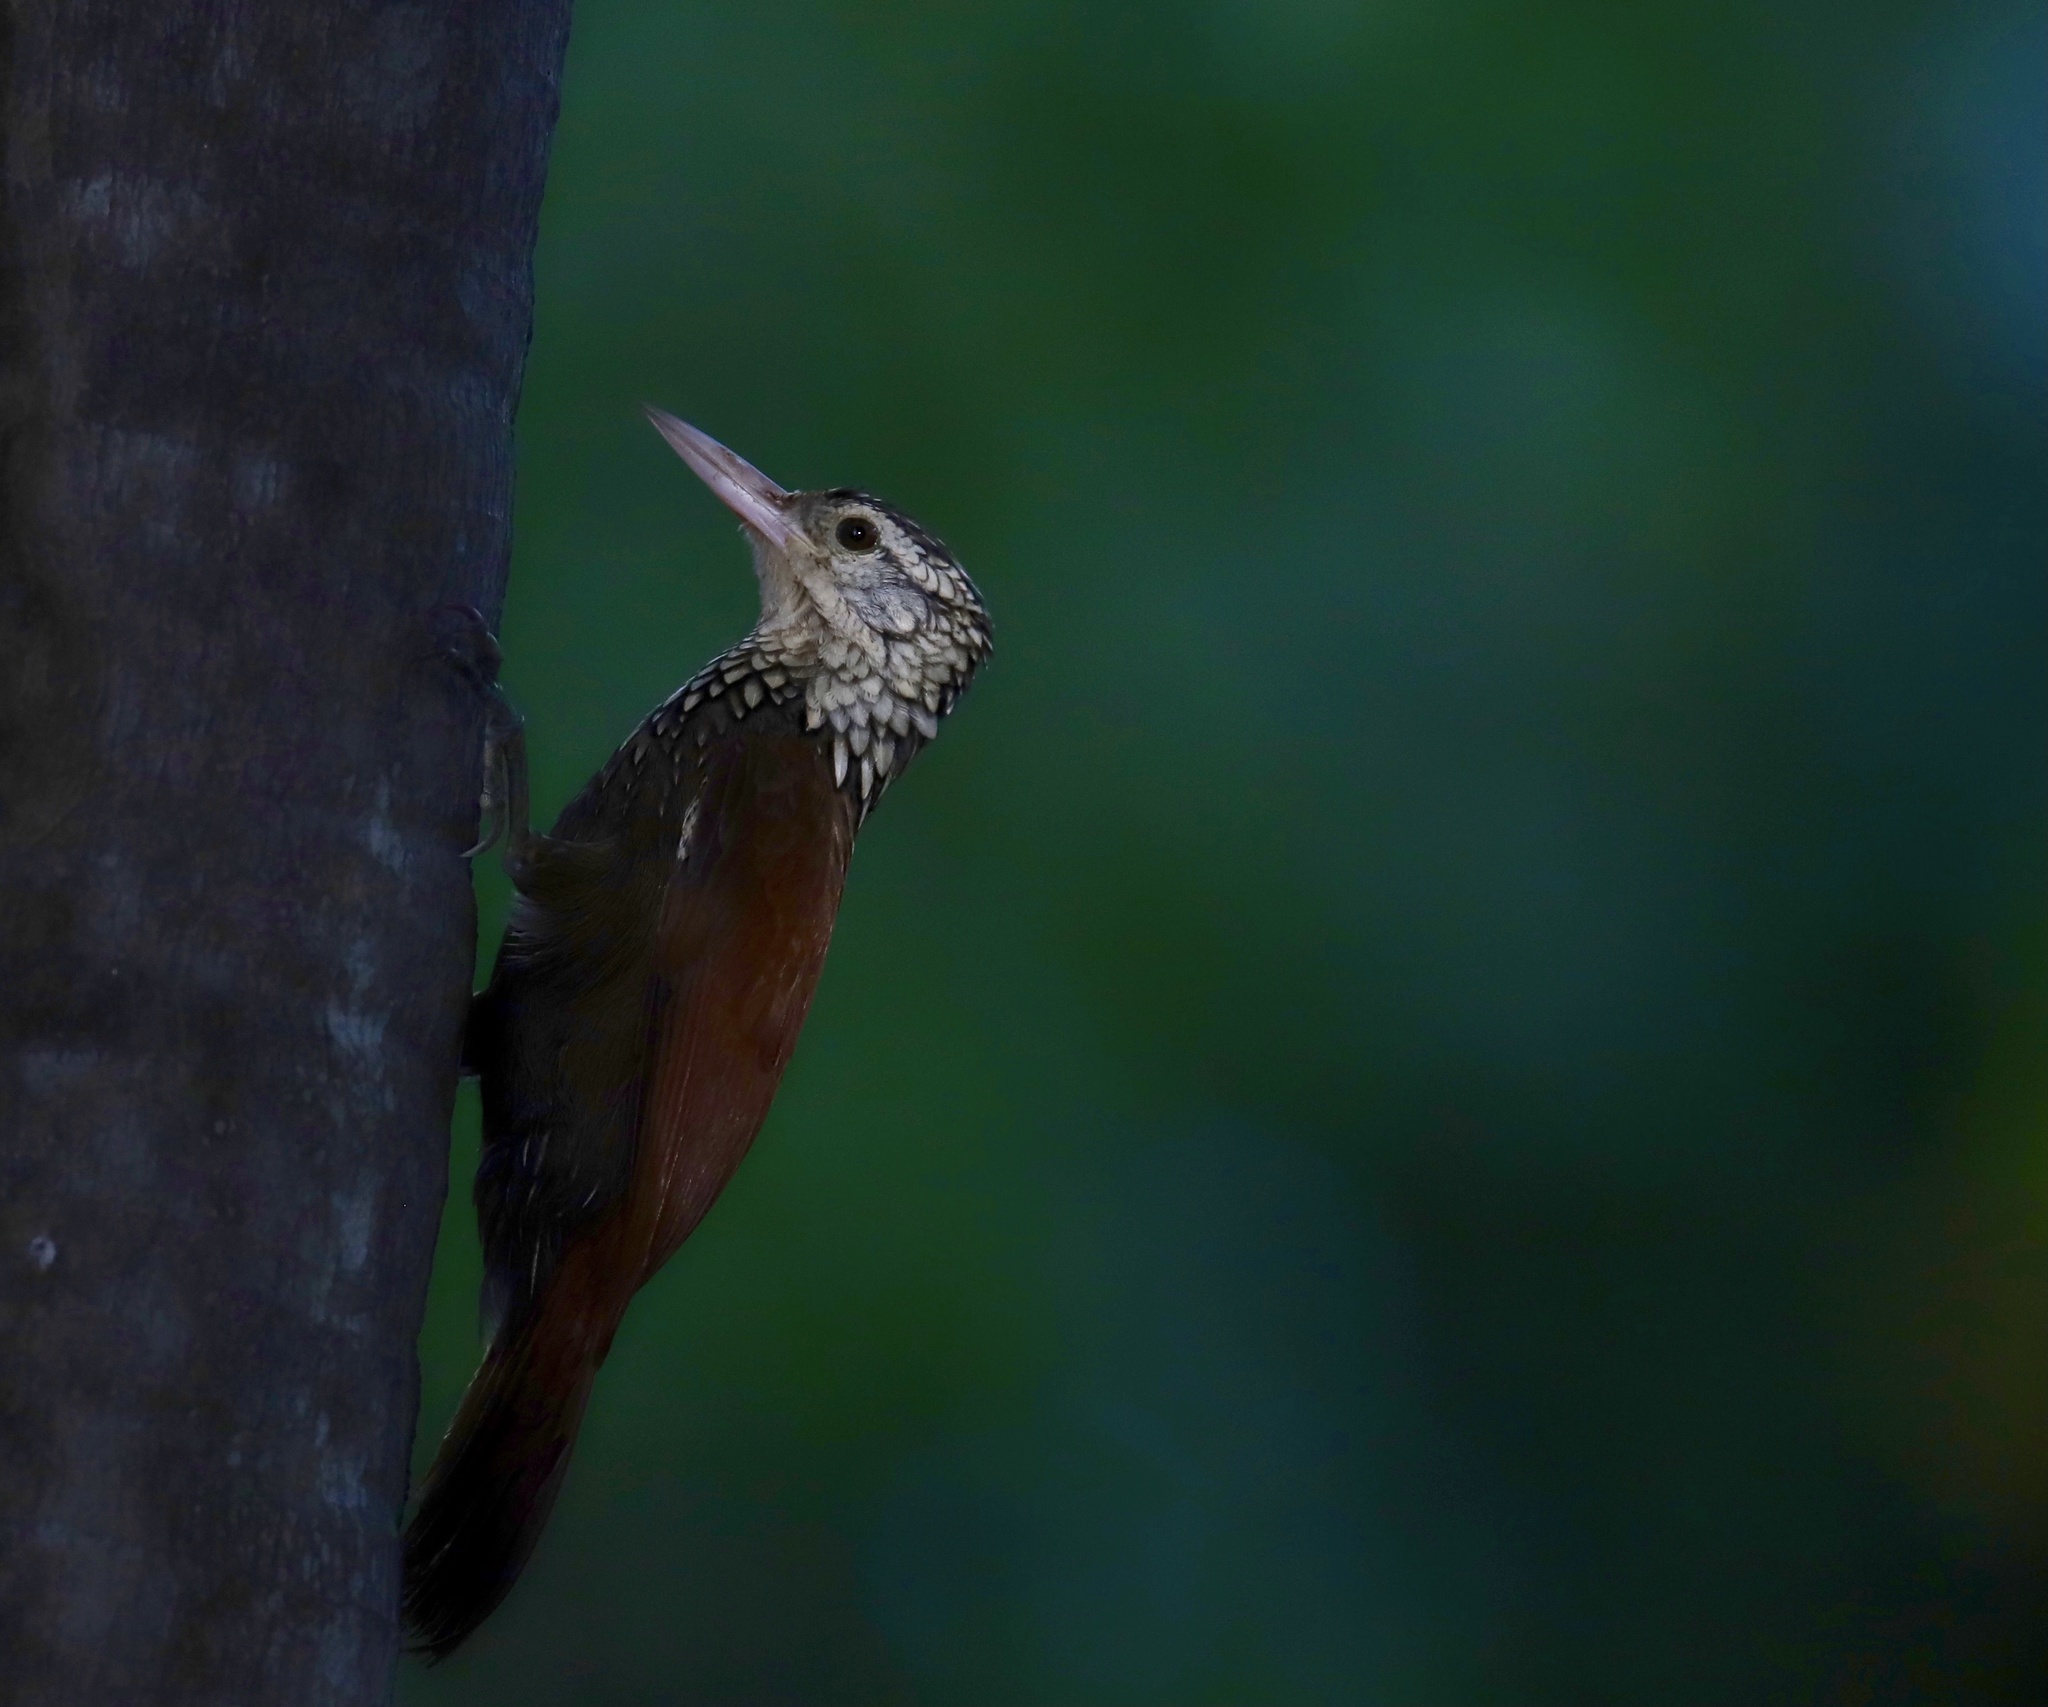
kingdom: Animalia
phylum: Chordata
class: Aves
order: Passeriformes
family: Furnariidae
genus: Xiphorhynchus
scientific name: Xiphorhynchus picus
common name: Straight-billed woodcreeper
